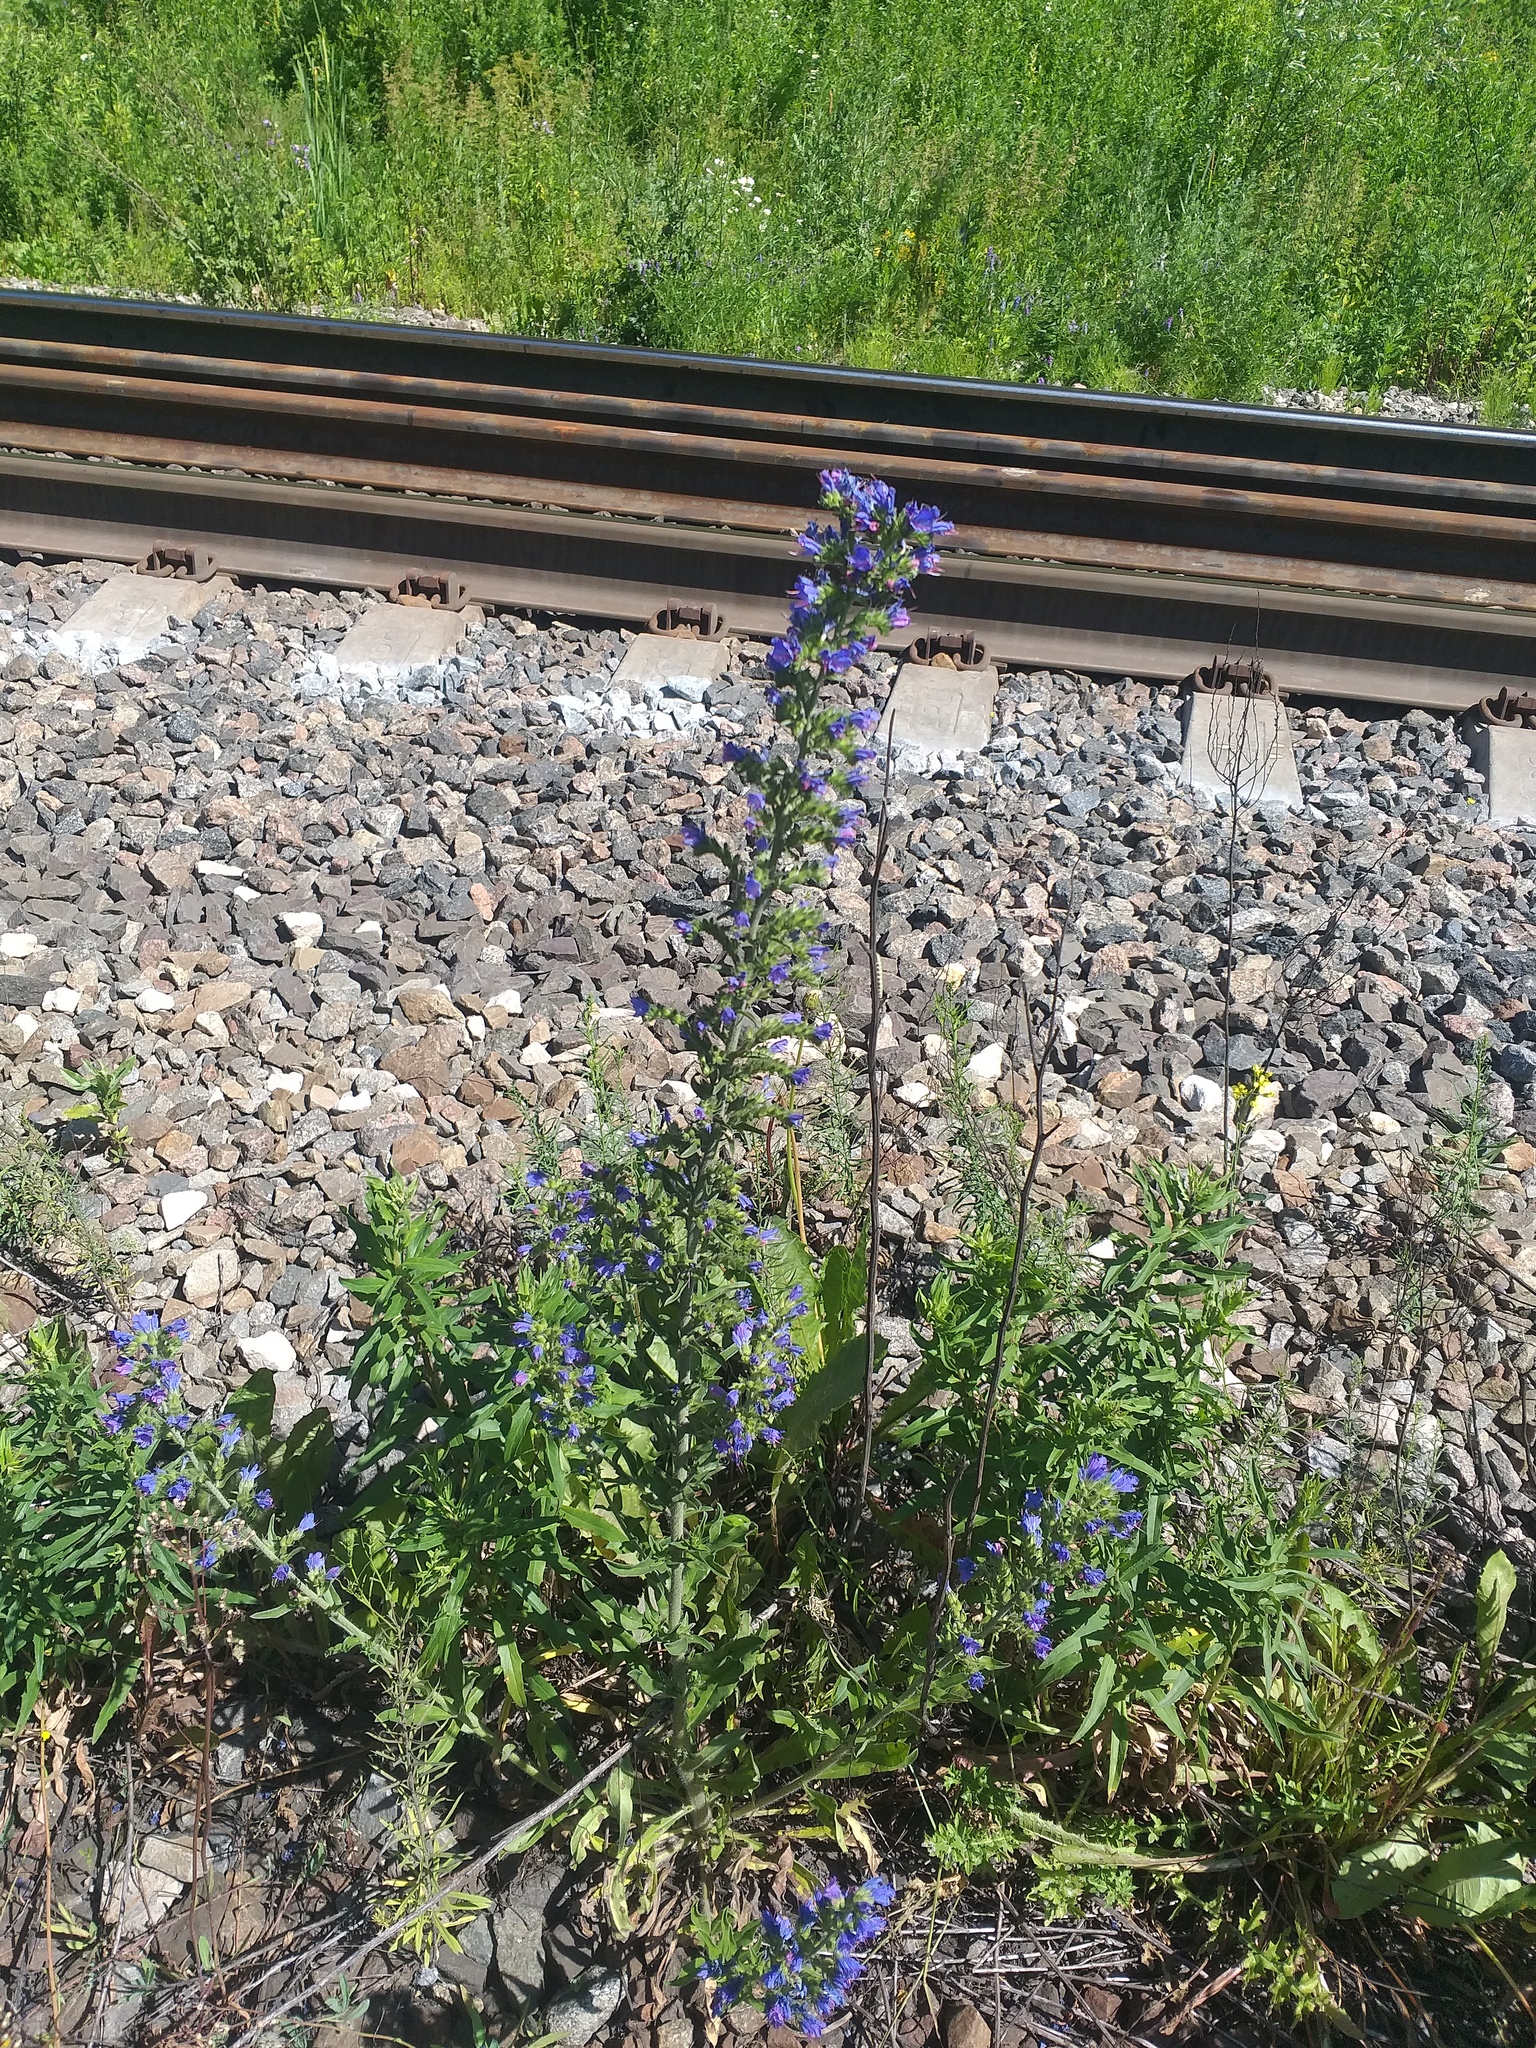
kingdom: Plantae
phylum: Tracheophyta
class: Magnoliopsida
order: Boraginales
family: Boraginaceae
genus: Echium
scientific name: Echium vulgare
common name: Common viper's bugloss
